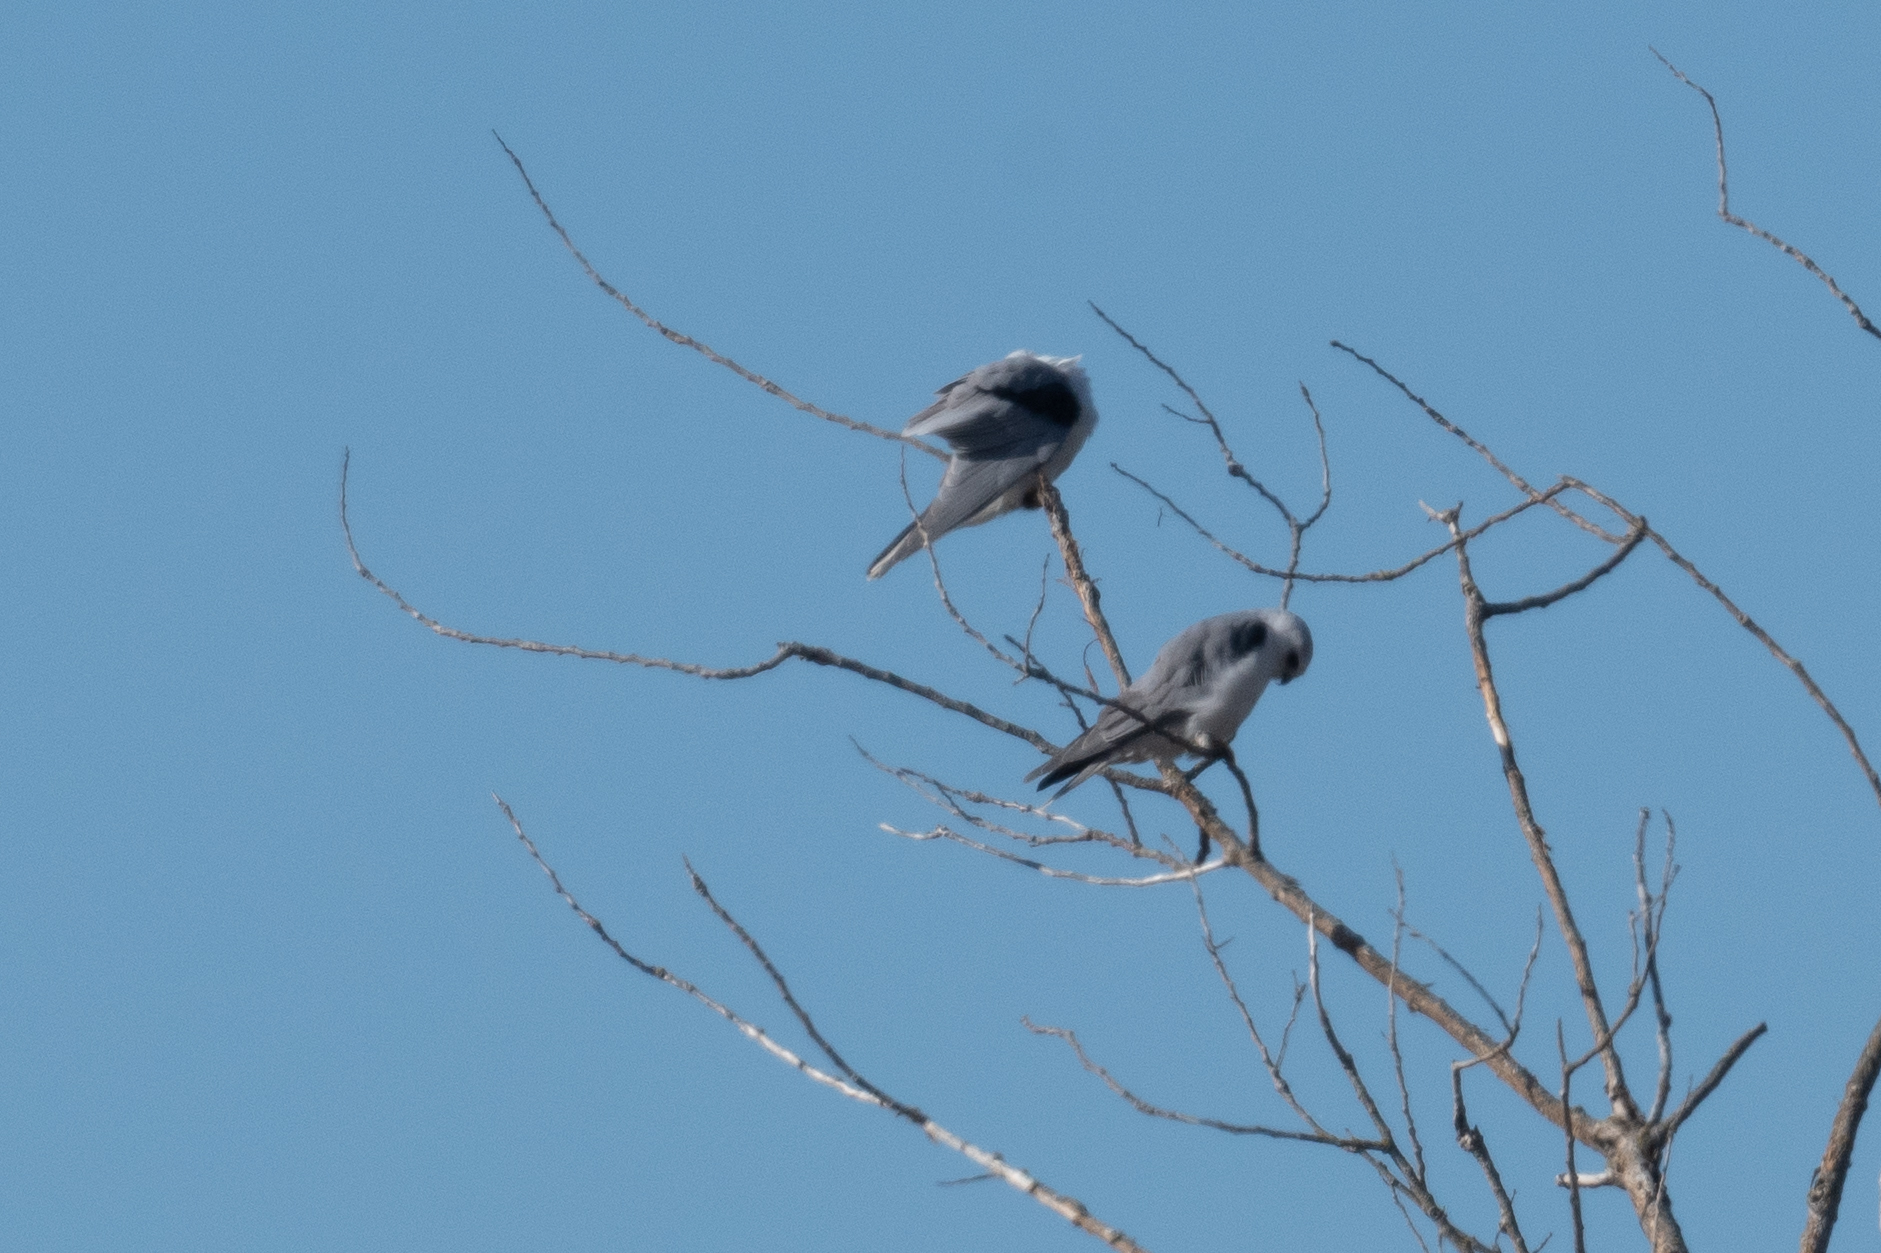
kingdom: Animalia
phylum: Chordata
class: Aves
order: Accipitriformes
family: Accipitridae
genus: Elanus
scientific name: Elanus leucurus
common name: White-tailed kite
